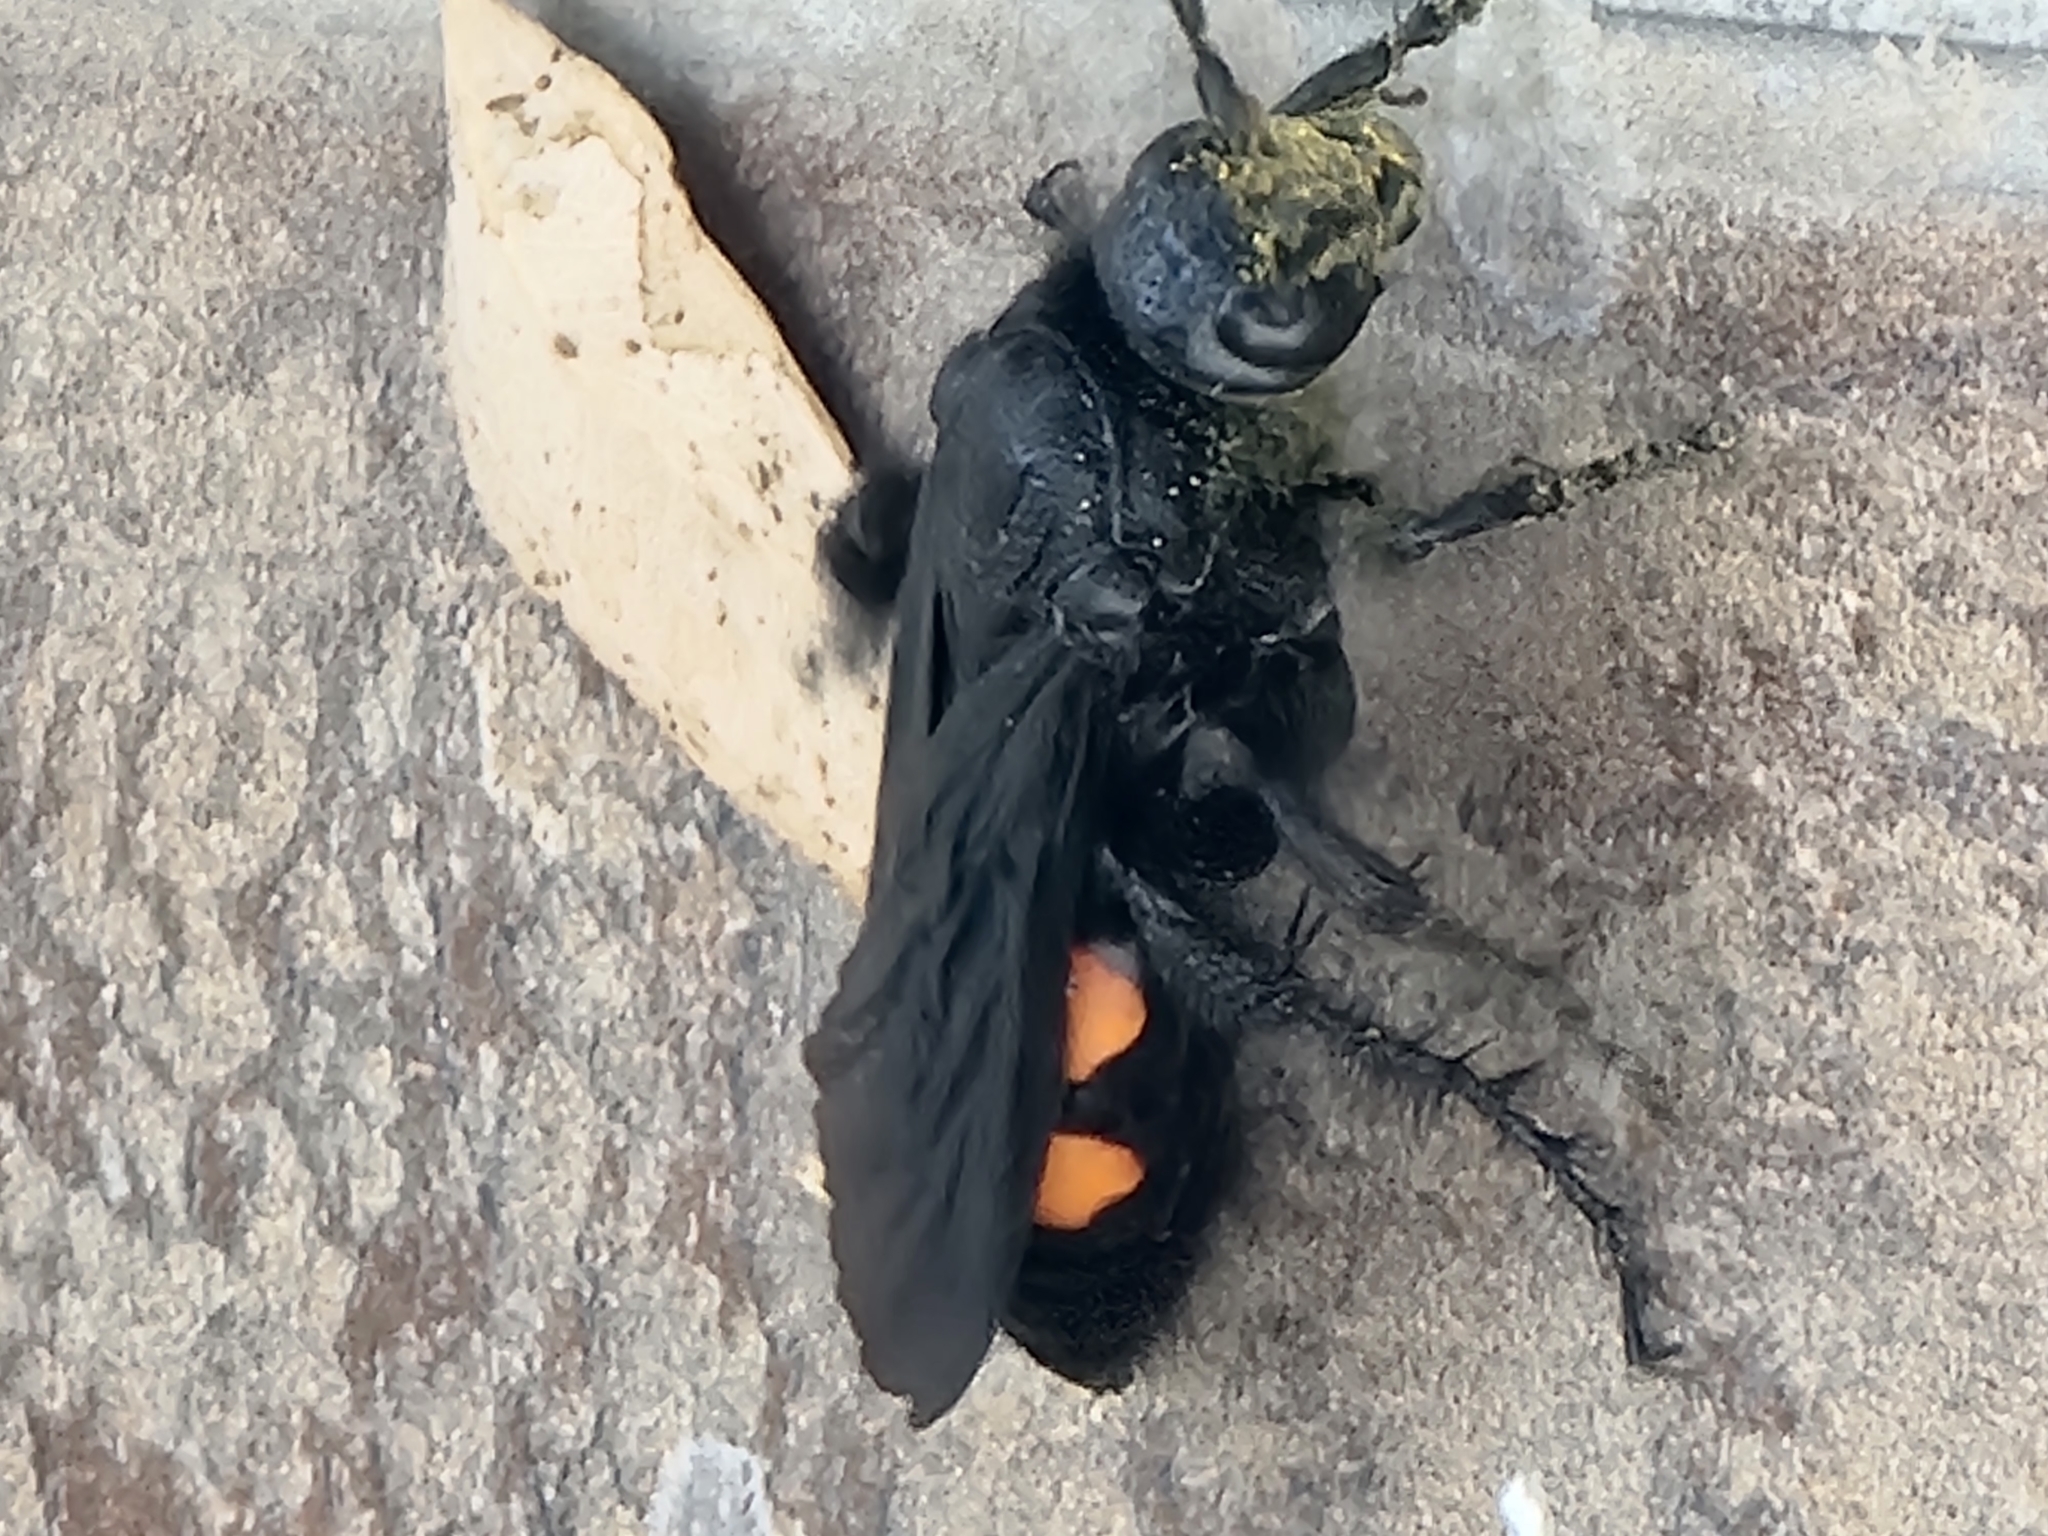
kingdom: Animalia
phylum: Arthropoda
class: Insecta
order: Hymenoptera
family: Scoliidae
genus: Pygodasis
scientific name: Pygodasis ephippium
